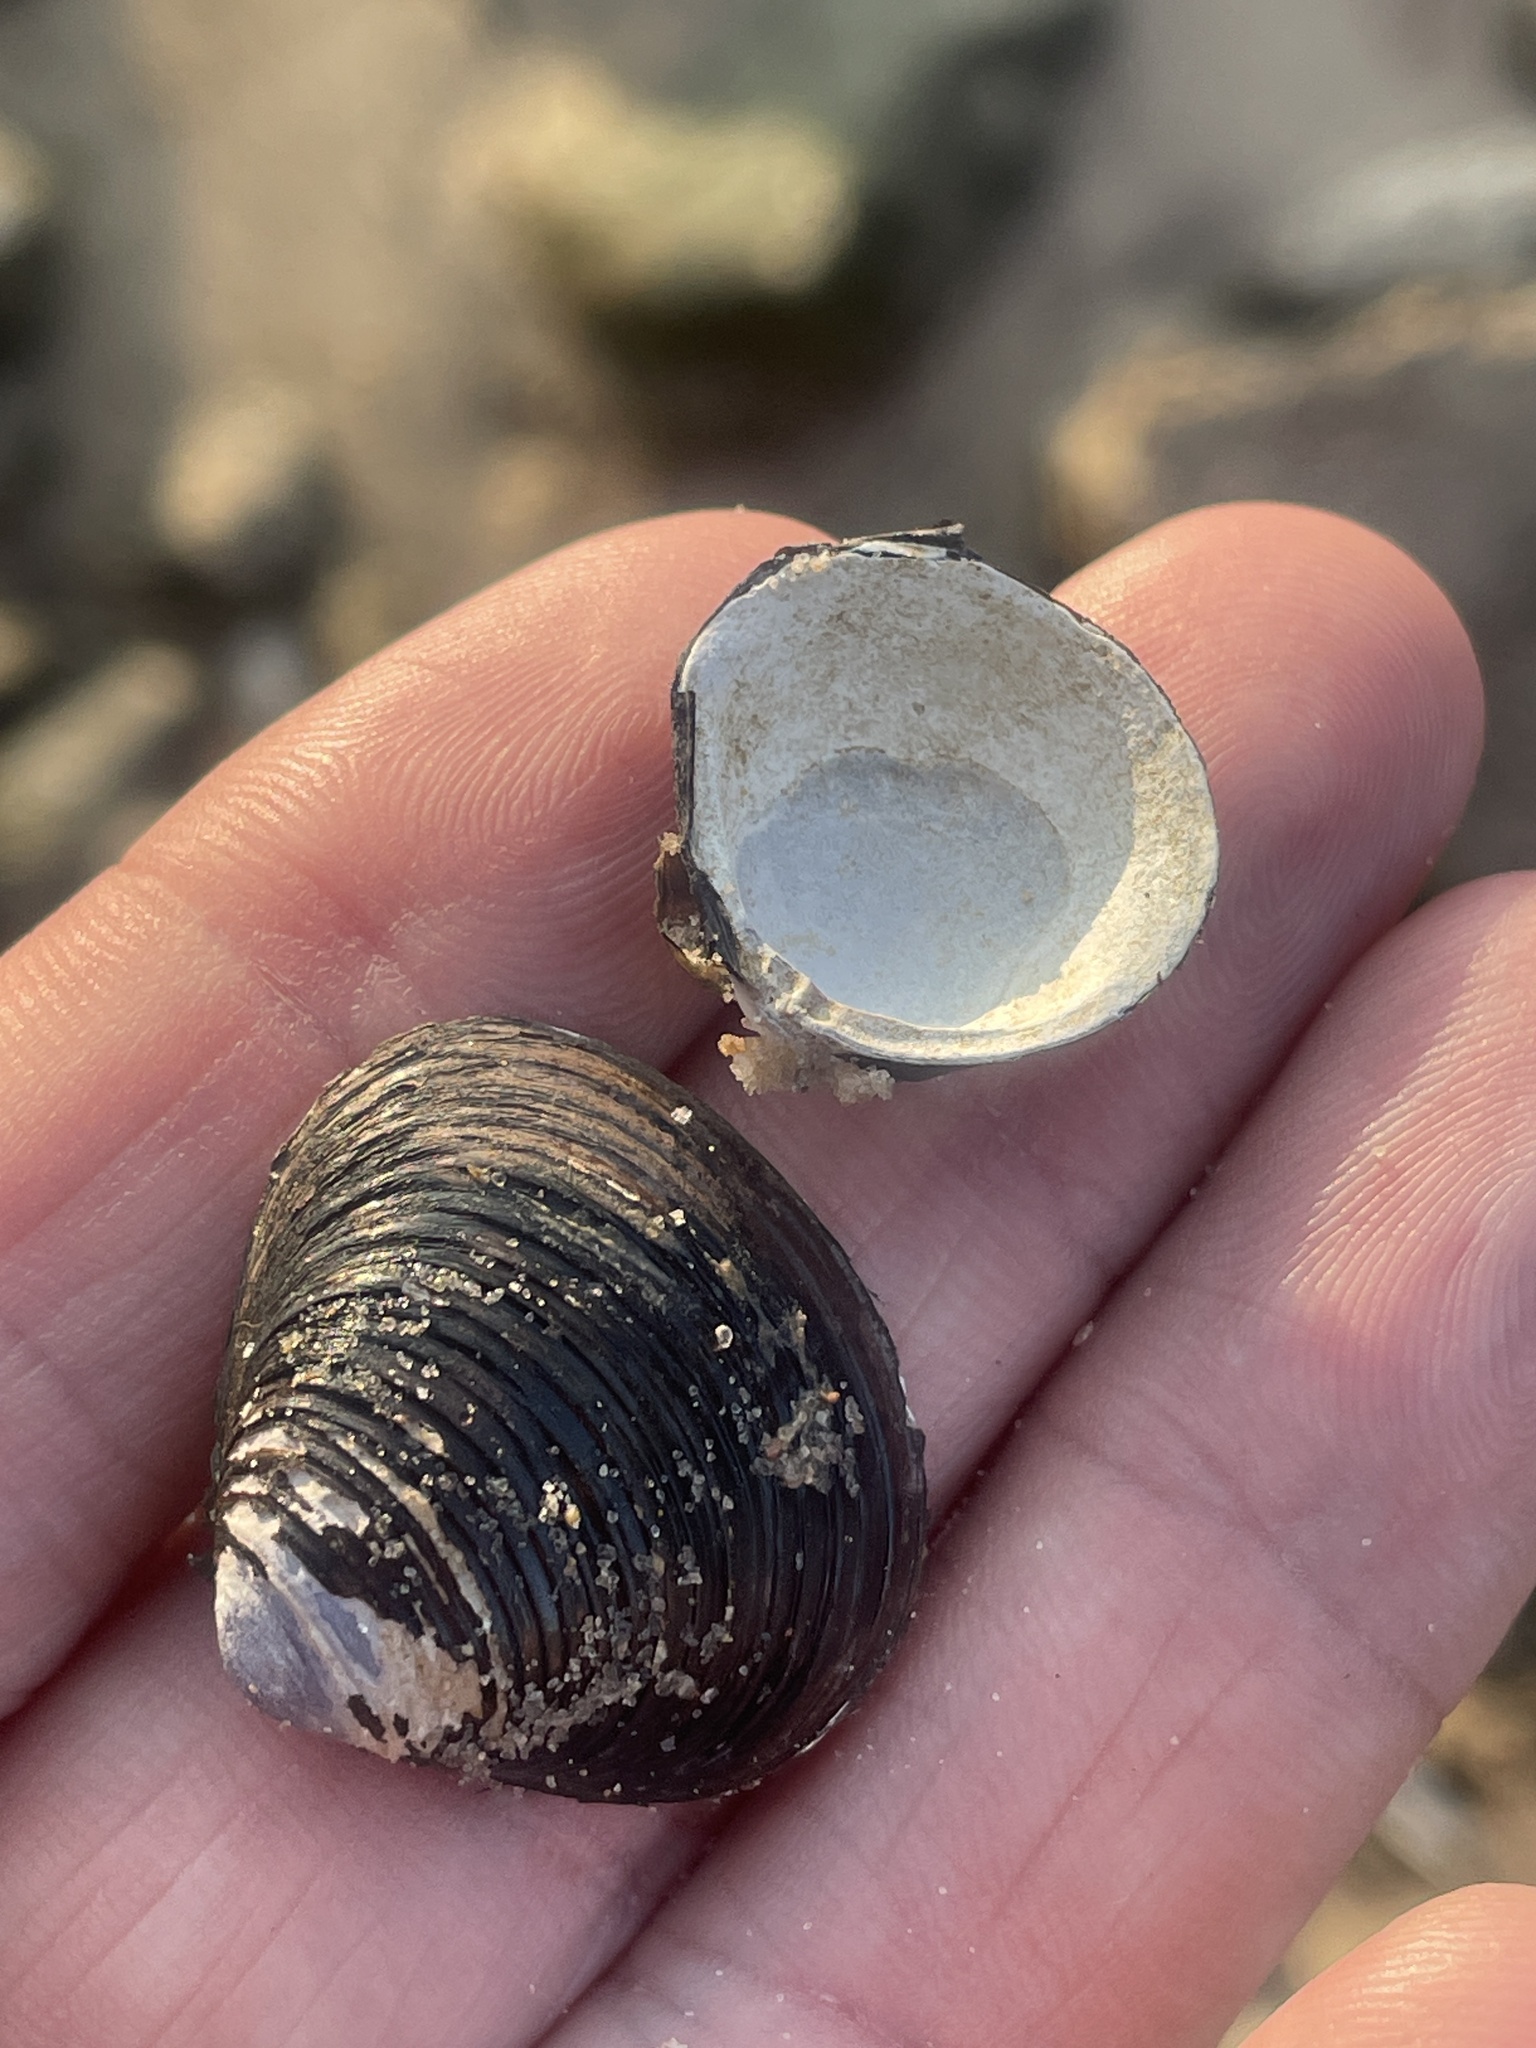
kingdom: Animalia
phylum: Mollusca
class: Bivalvia
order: Venerida
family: Cyrenidae
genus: Corbicula
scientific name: Corbicula fluminea
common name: Asian clam
